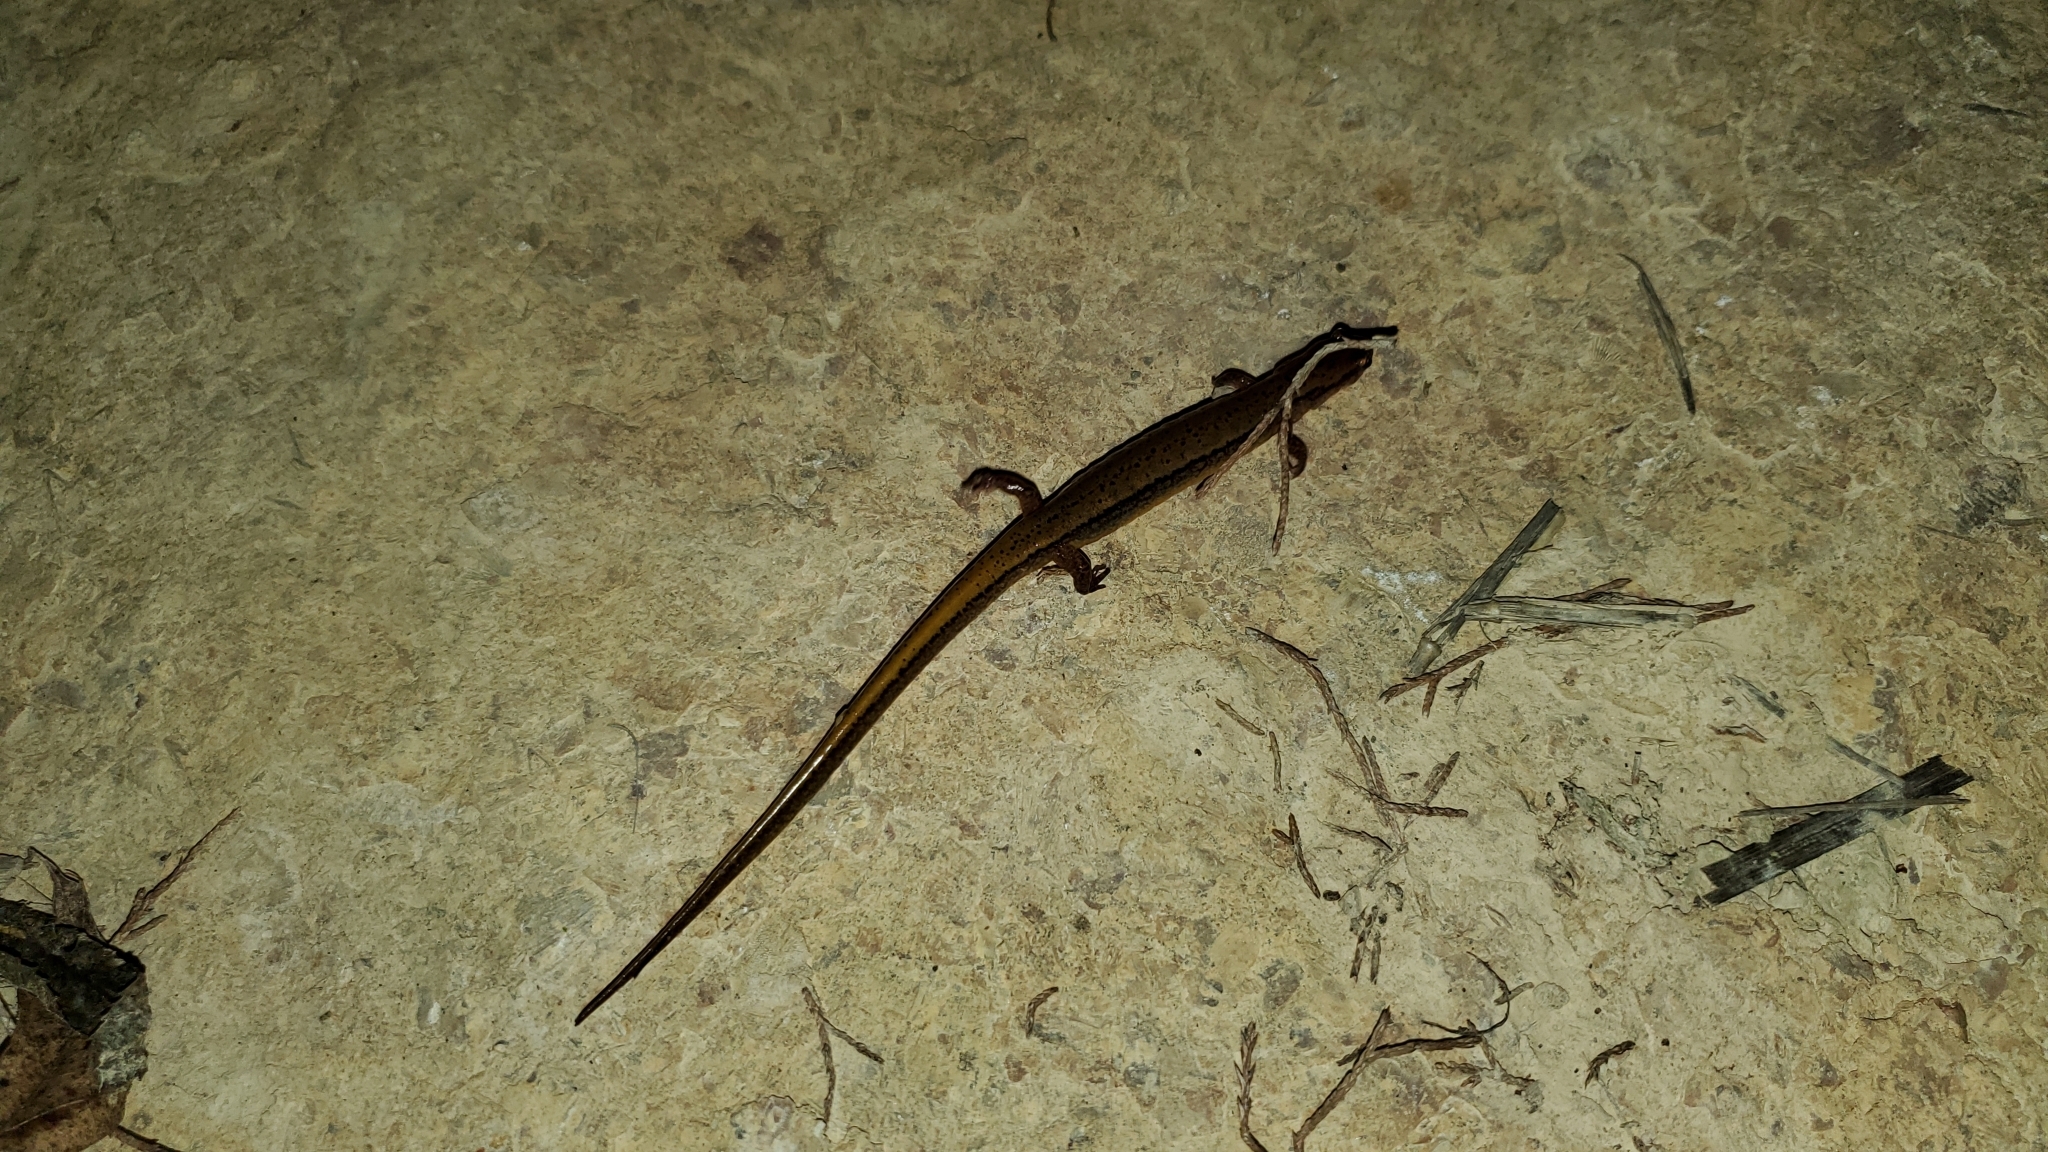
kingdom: Animalia
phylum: Chordata
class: Amphibia
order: Caudata
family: Plethodontidae
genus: Eurycea
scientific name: Eurycea cirrigera
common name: Southern two-lined salamander
